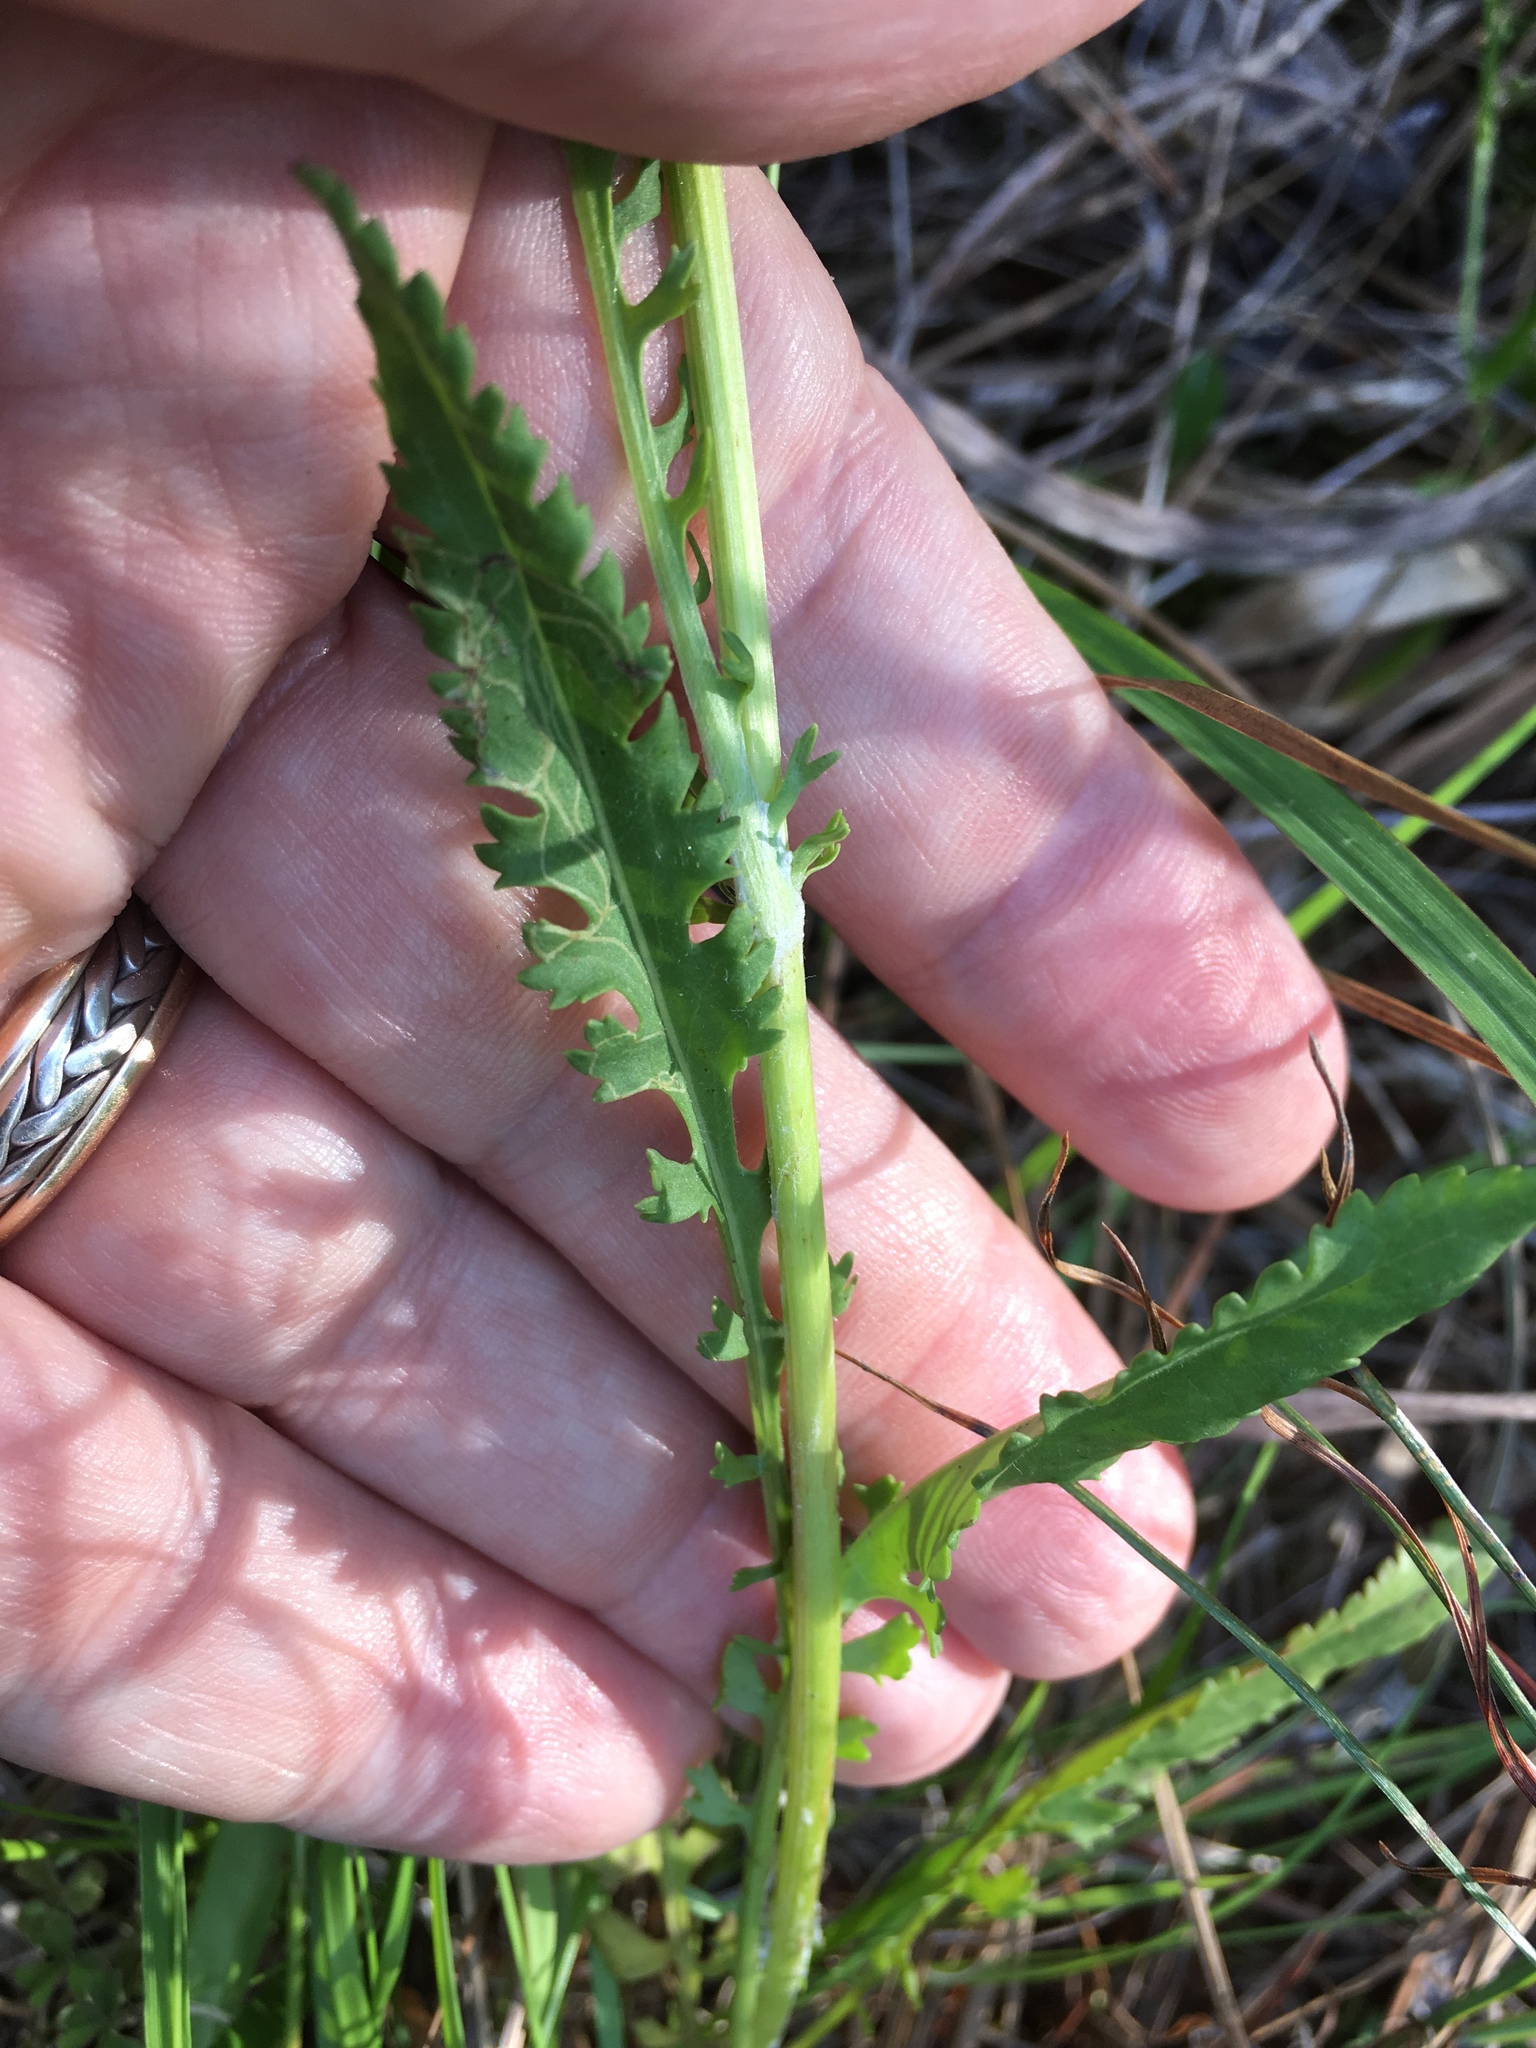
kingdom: Plantae
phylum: Tracheophyta
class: Magnoliopsida
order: Asterales
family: Asteraceae
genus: Packera
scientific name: Packera anonyma
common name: Small ragwort
